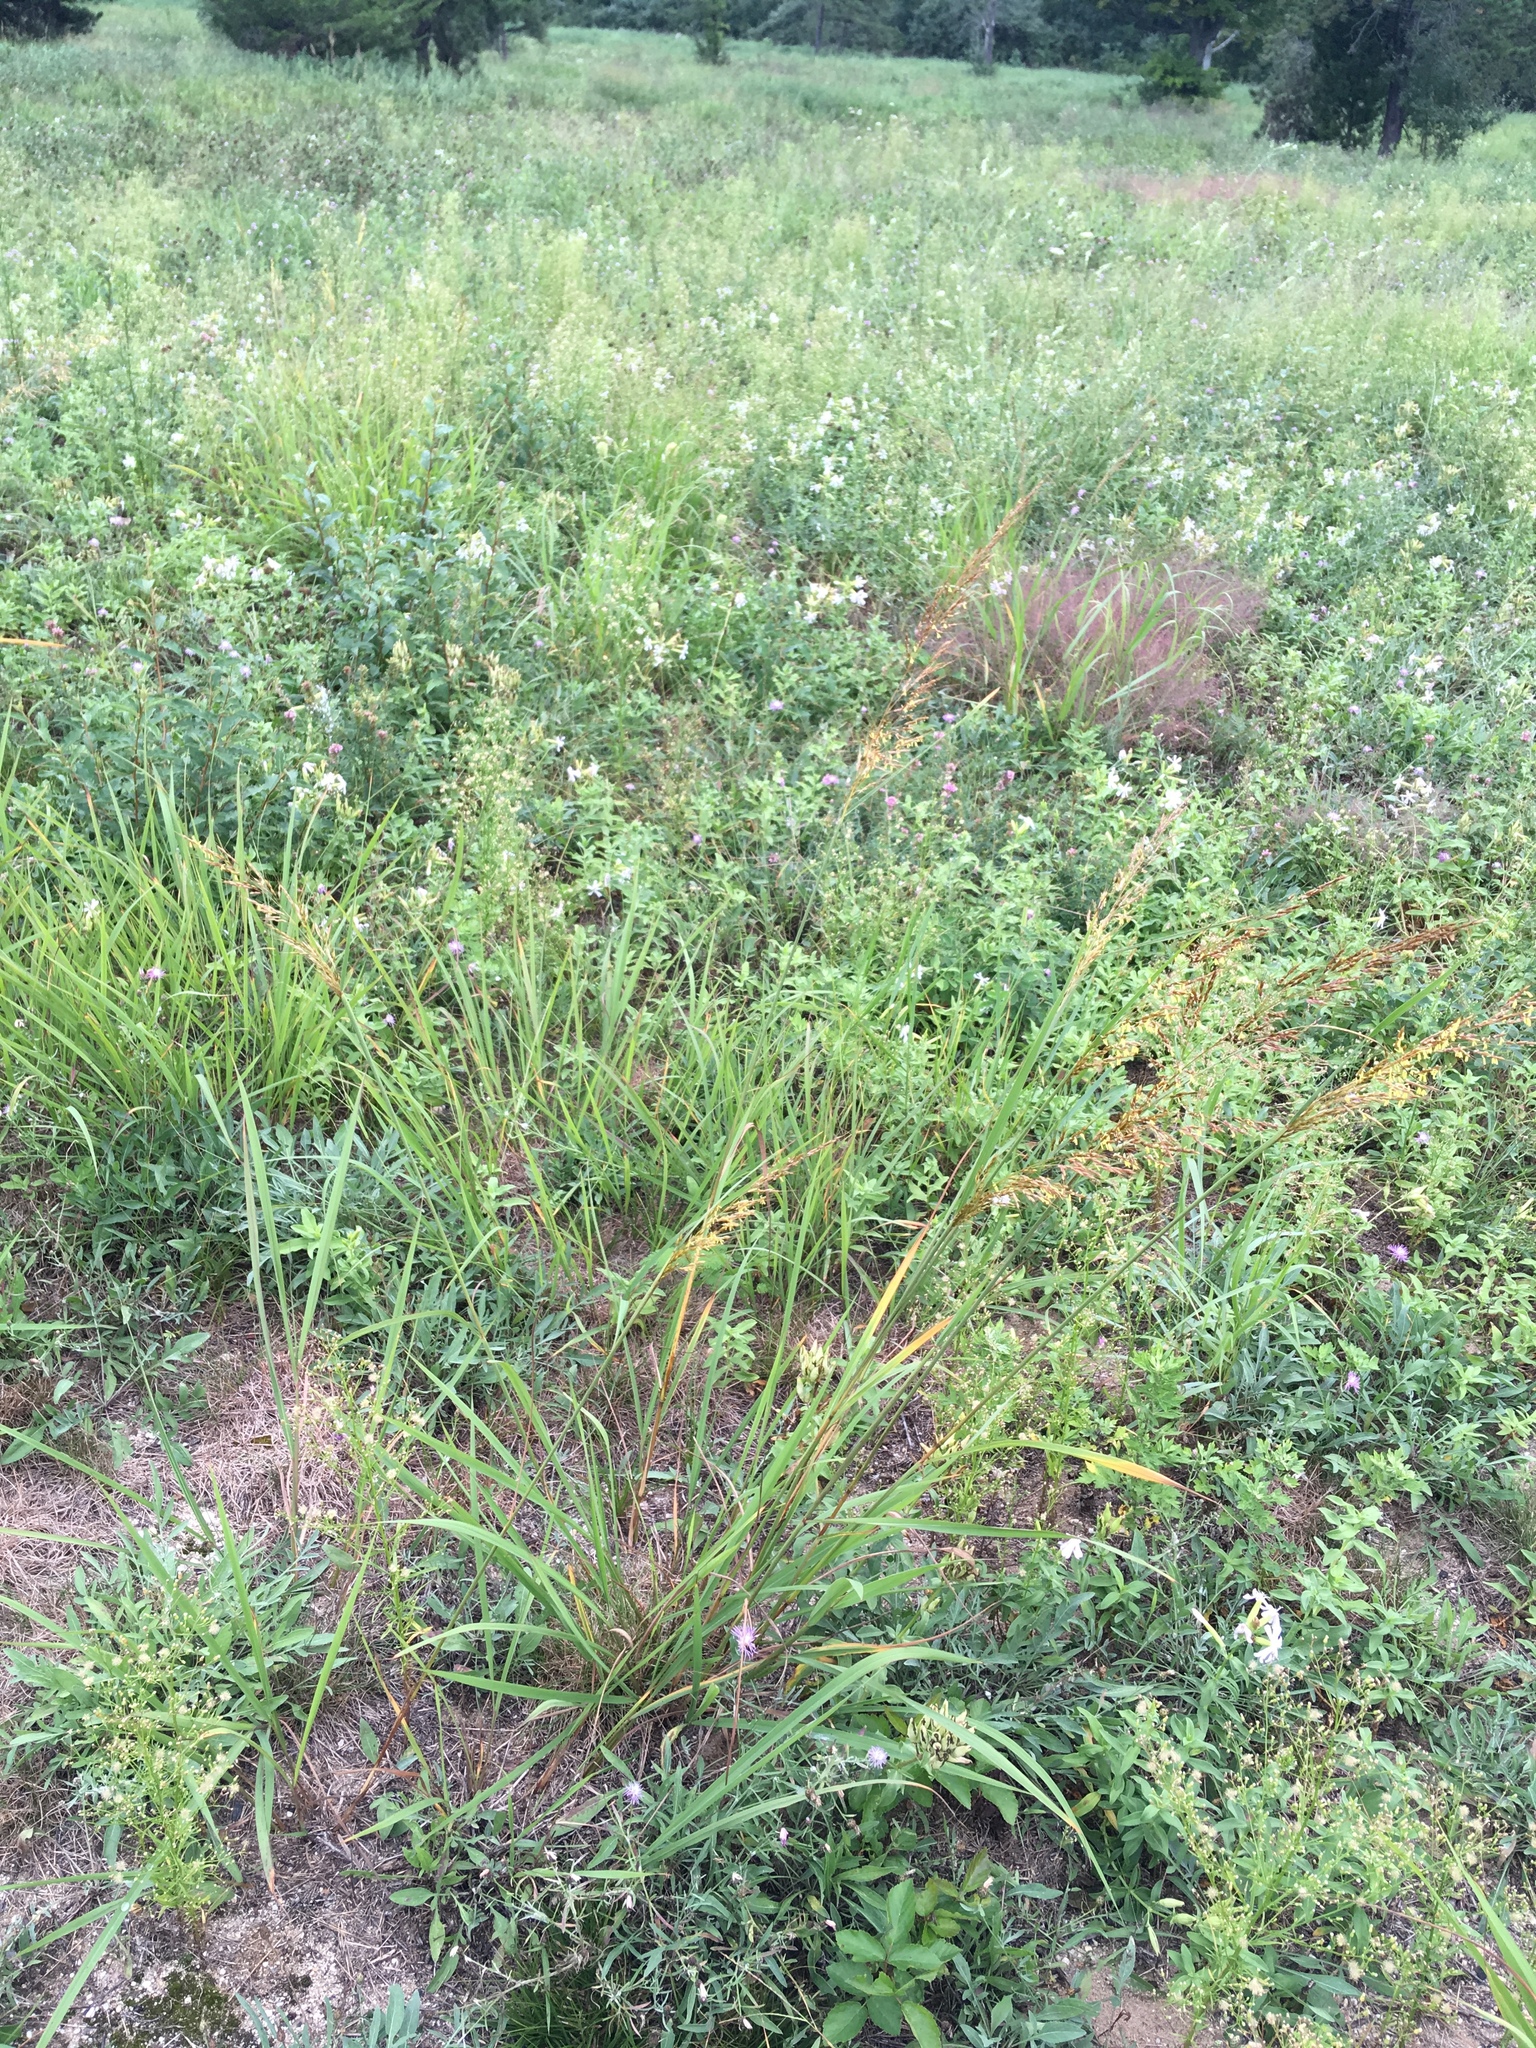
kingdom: Plantae
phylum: Tracheophyta
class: Liliopsida
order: Poales
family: Poaceae
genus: Sorghastrum
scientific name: Sorghastrum nutans
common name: Indian grass
